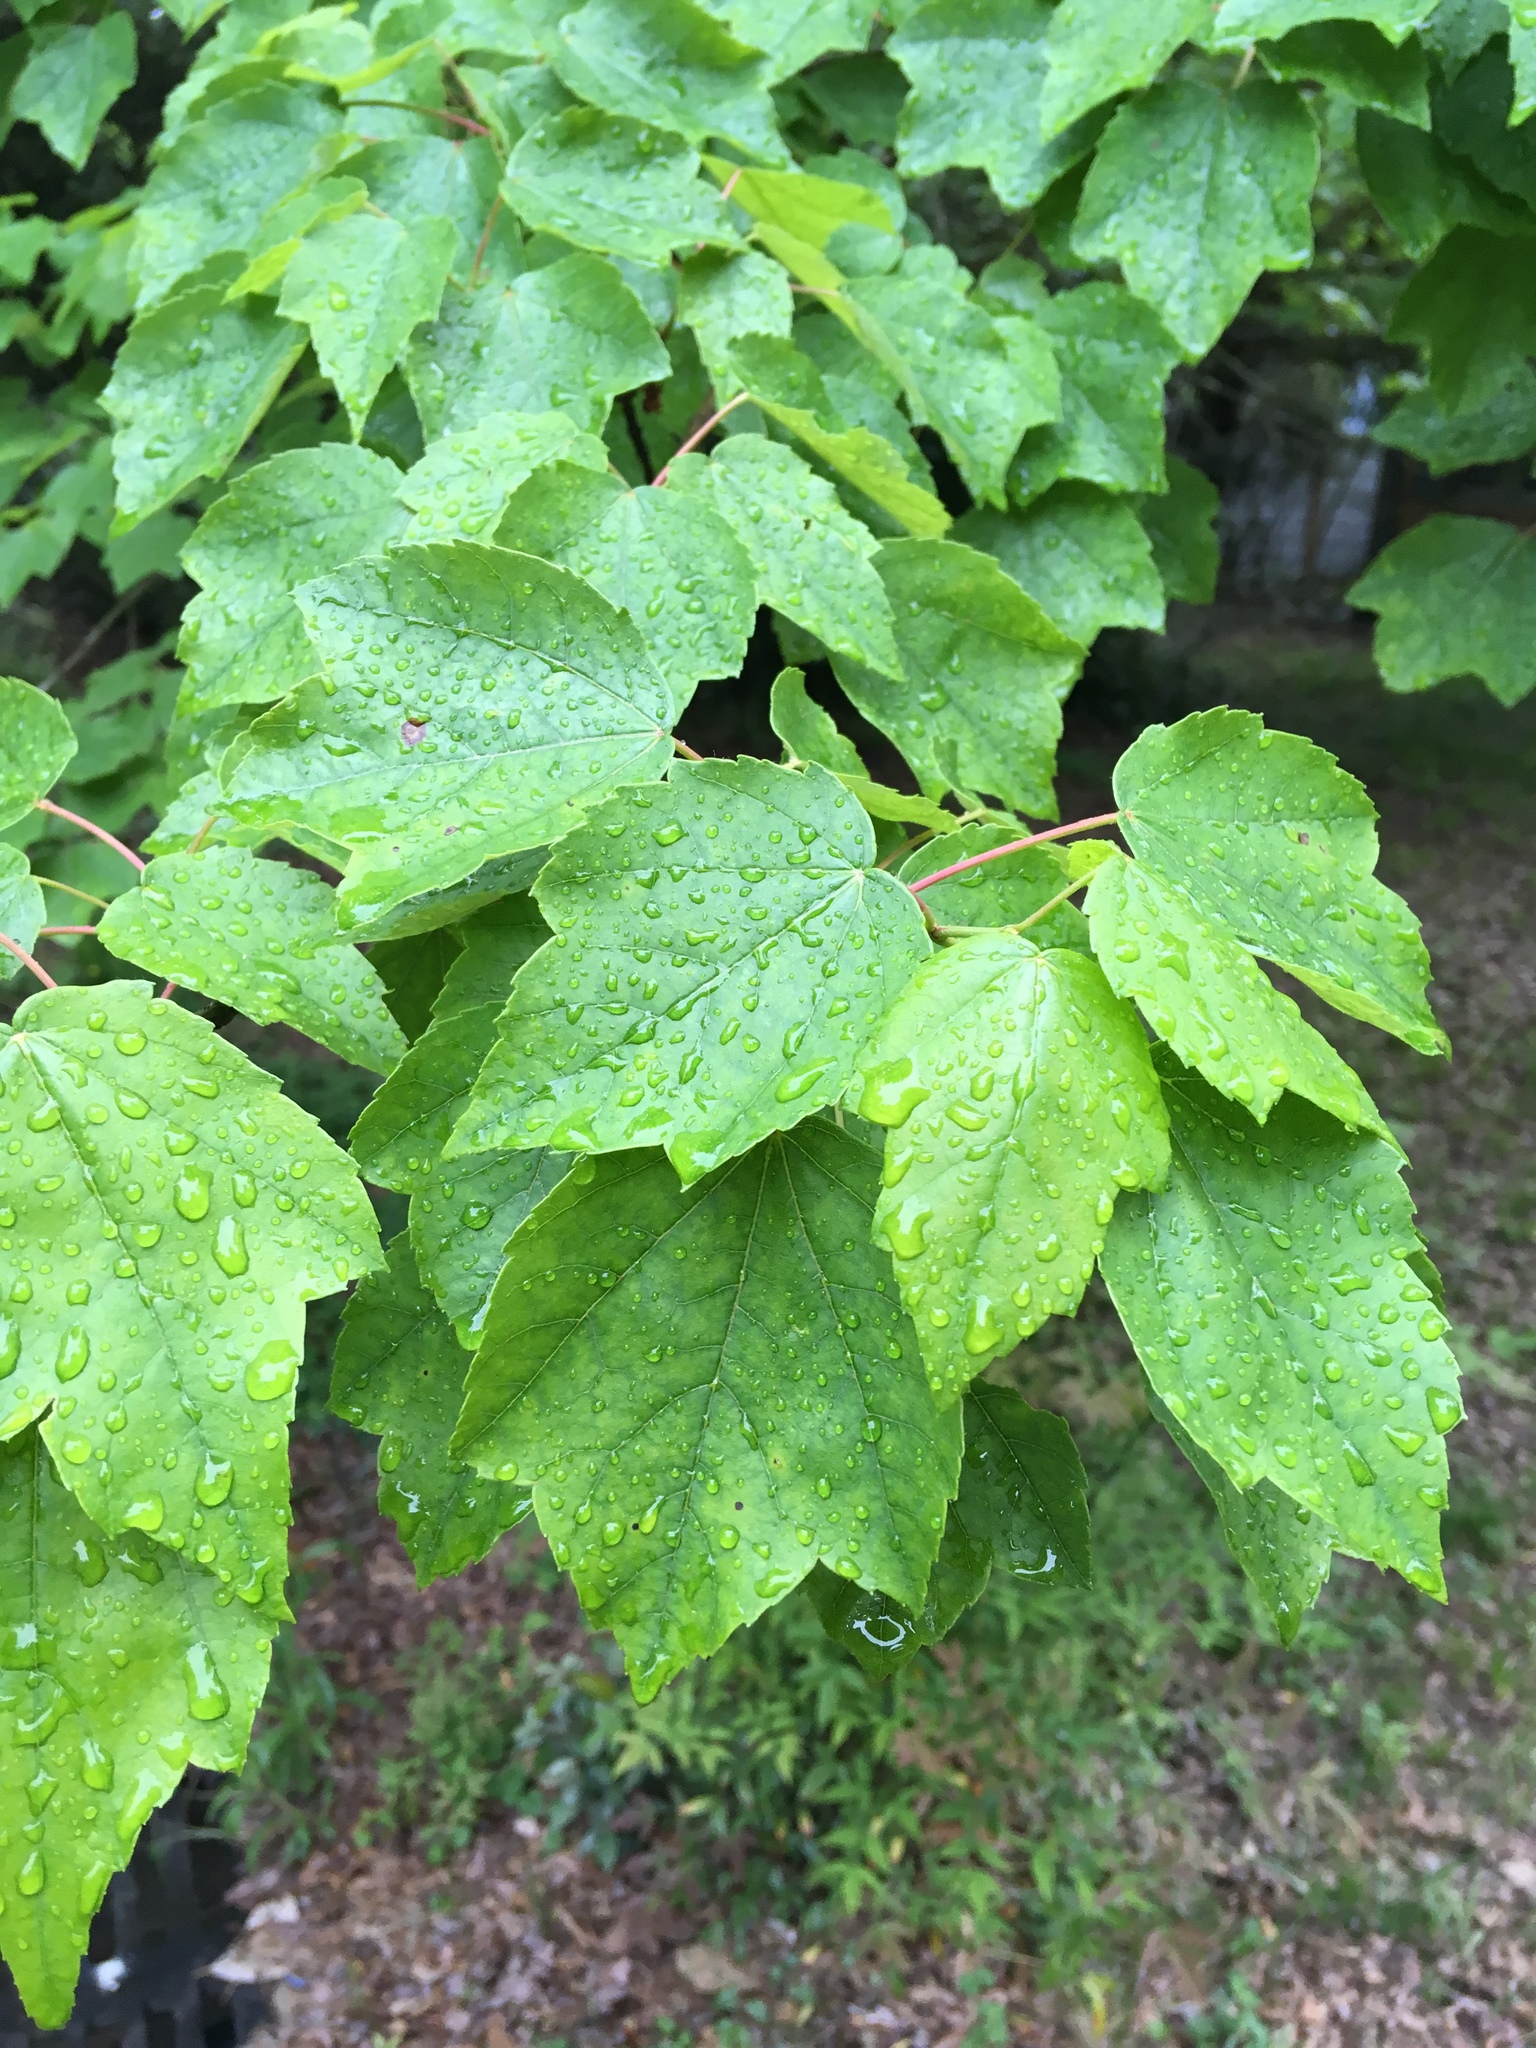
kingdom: Plantae
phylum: Tracheophyta
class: Magnoliopsida
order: Sapindales
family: Sapindaceae
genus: Acer
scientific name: Acer rubrum
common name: Red maple
